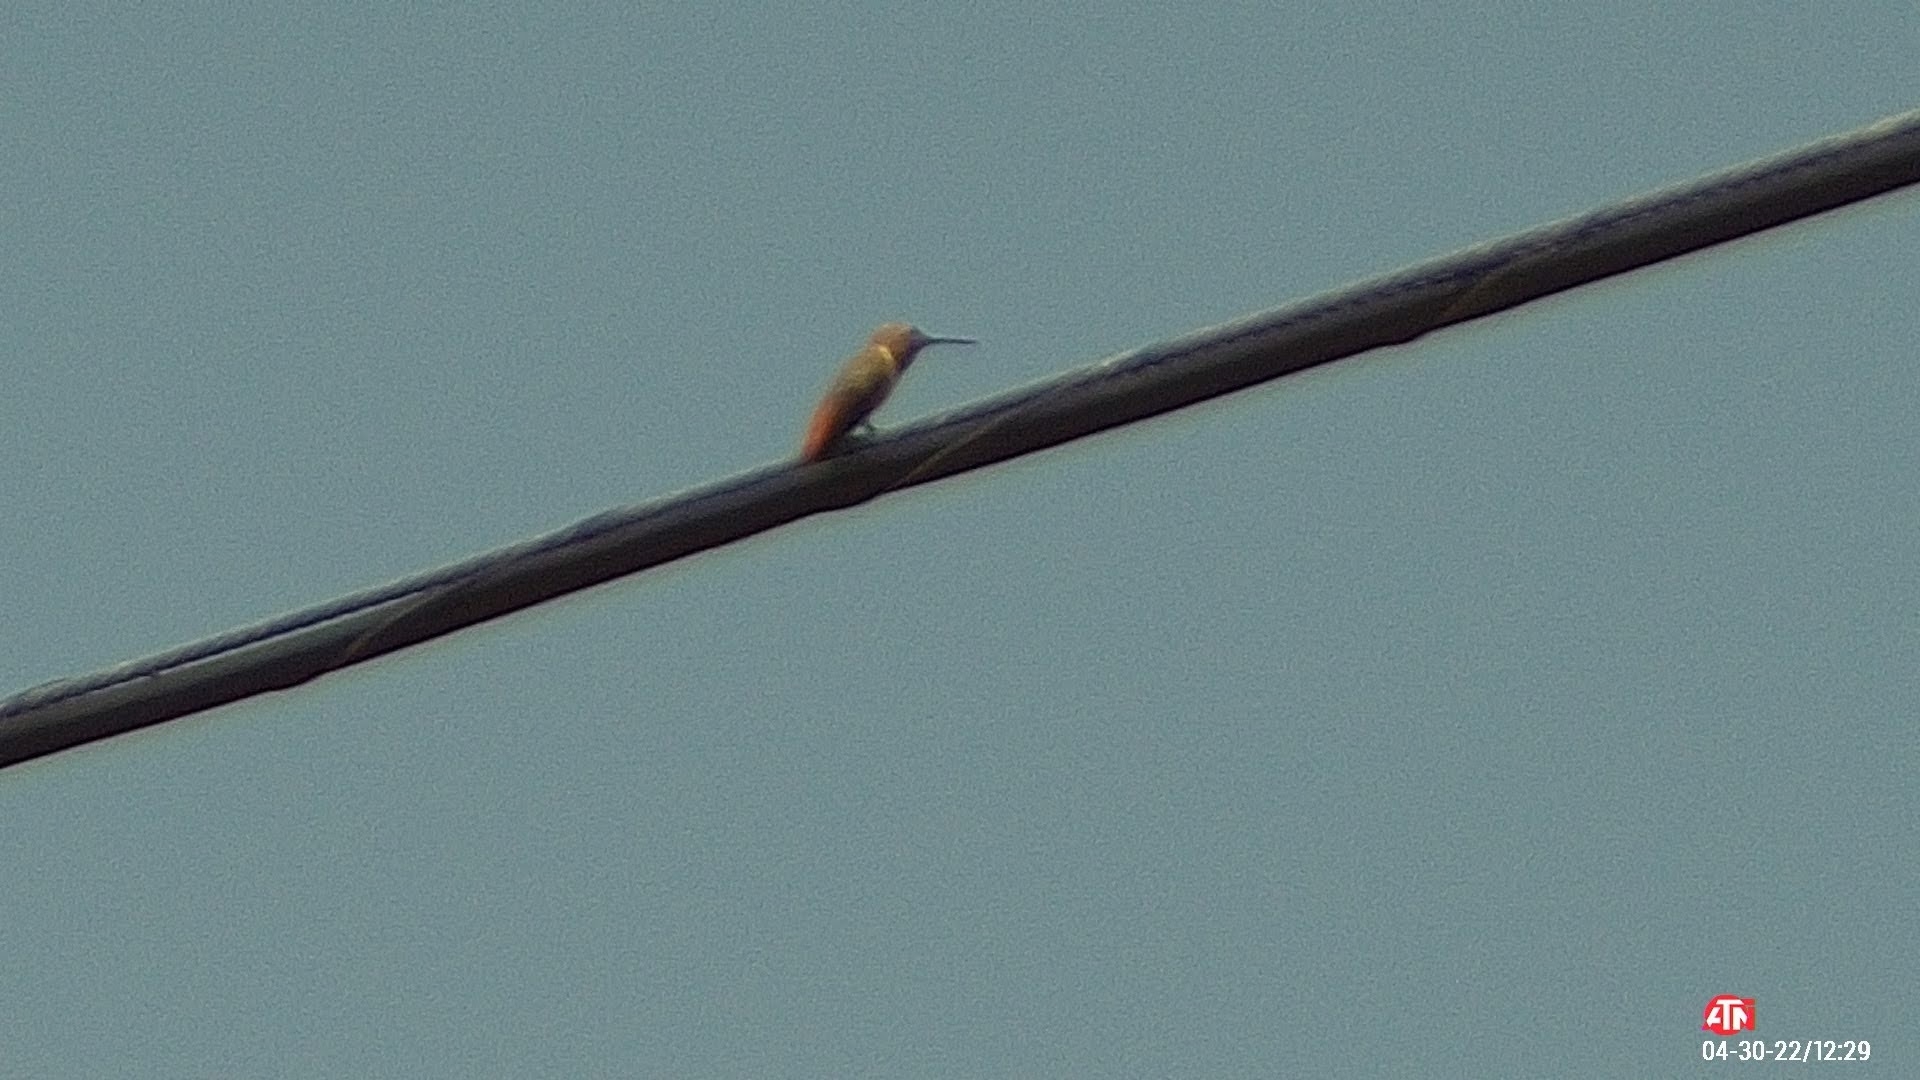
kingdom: Animalia
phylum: Chordata
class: Aves
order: Apodiformes
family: Trochilidae
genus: Selasphorus
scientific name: Selasphorus sasin
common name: Allen's hummingbird
